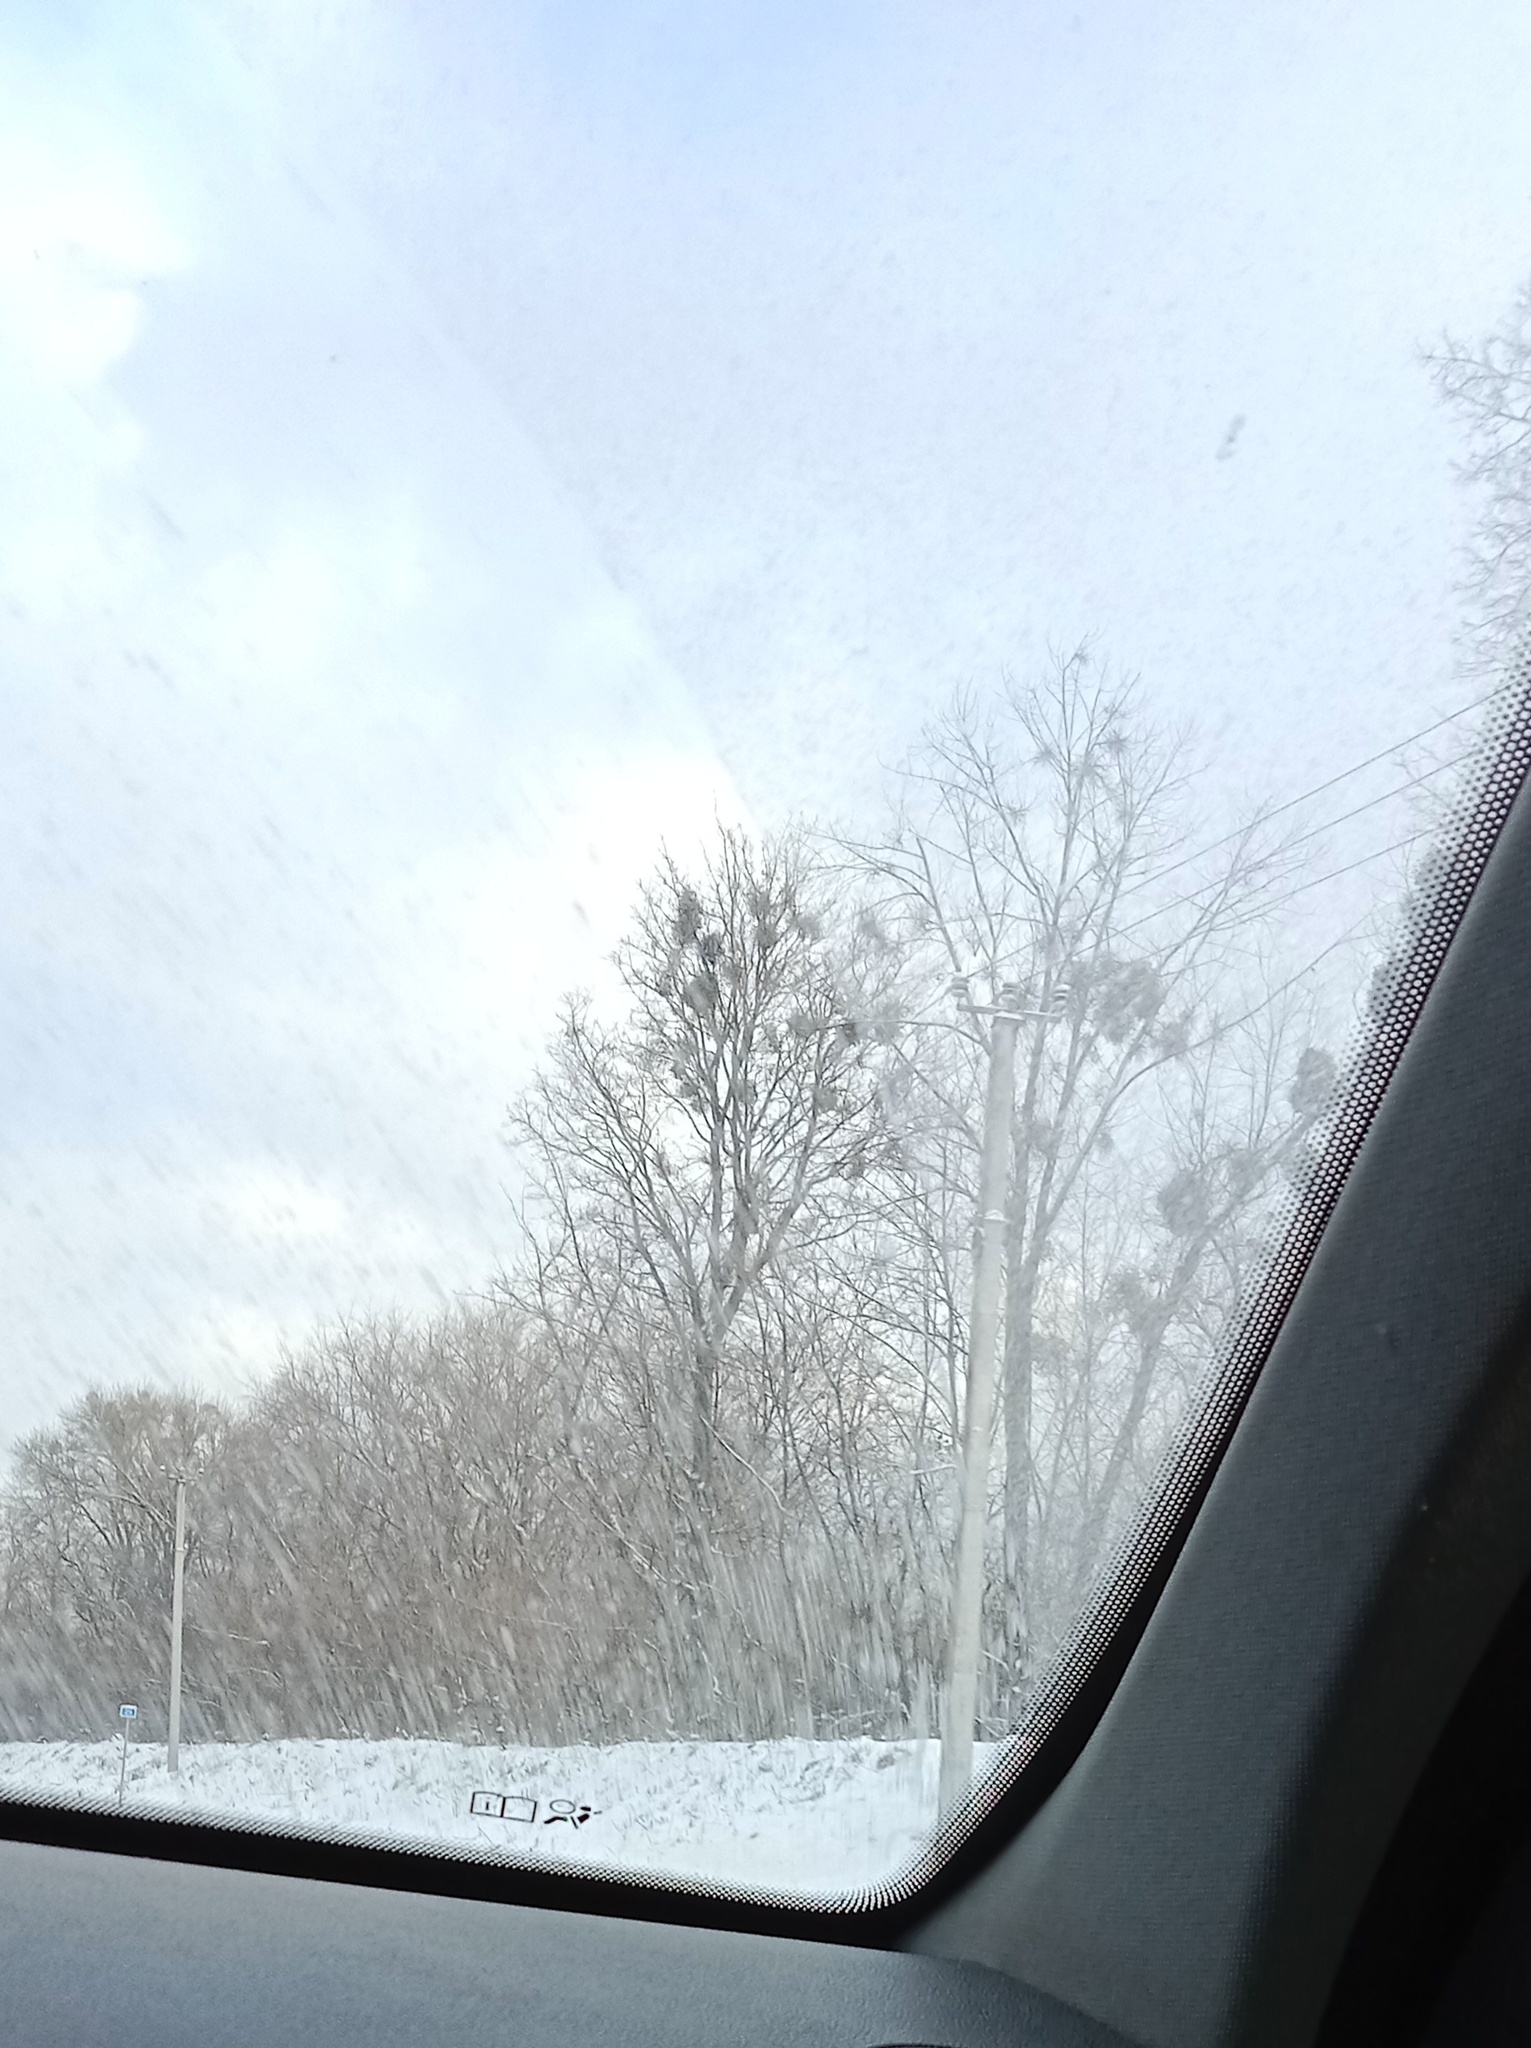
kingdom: Plantae
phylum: Tracheophyta
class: Magnoliopsida
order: Santalales
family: Viscaceae
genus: Viscum
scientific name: Viscum album
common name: Mistletoe
